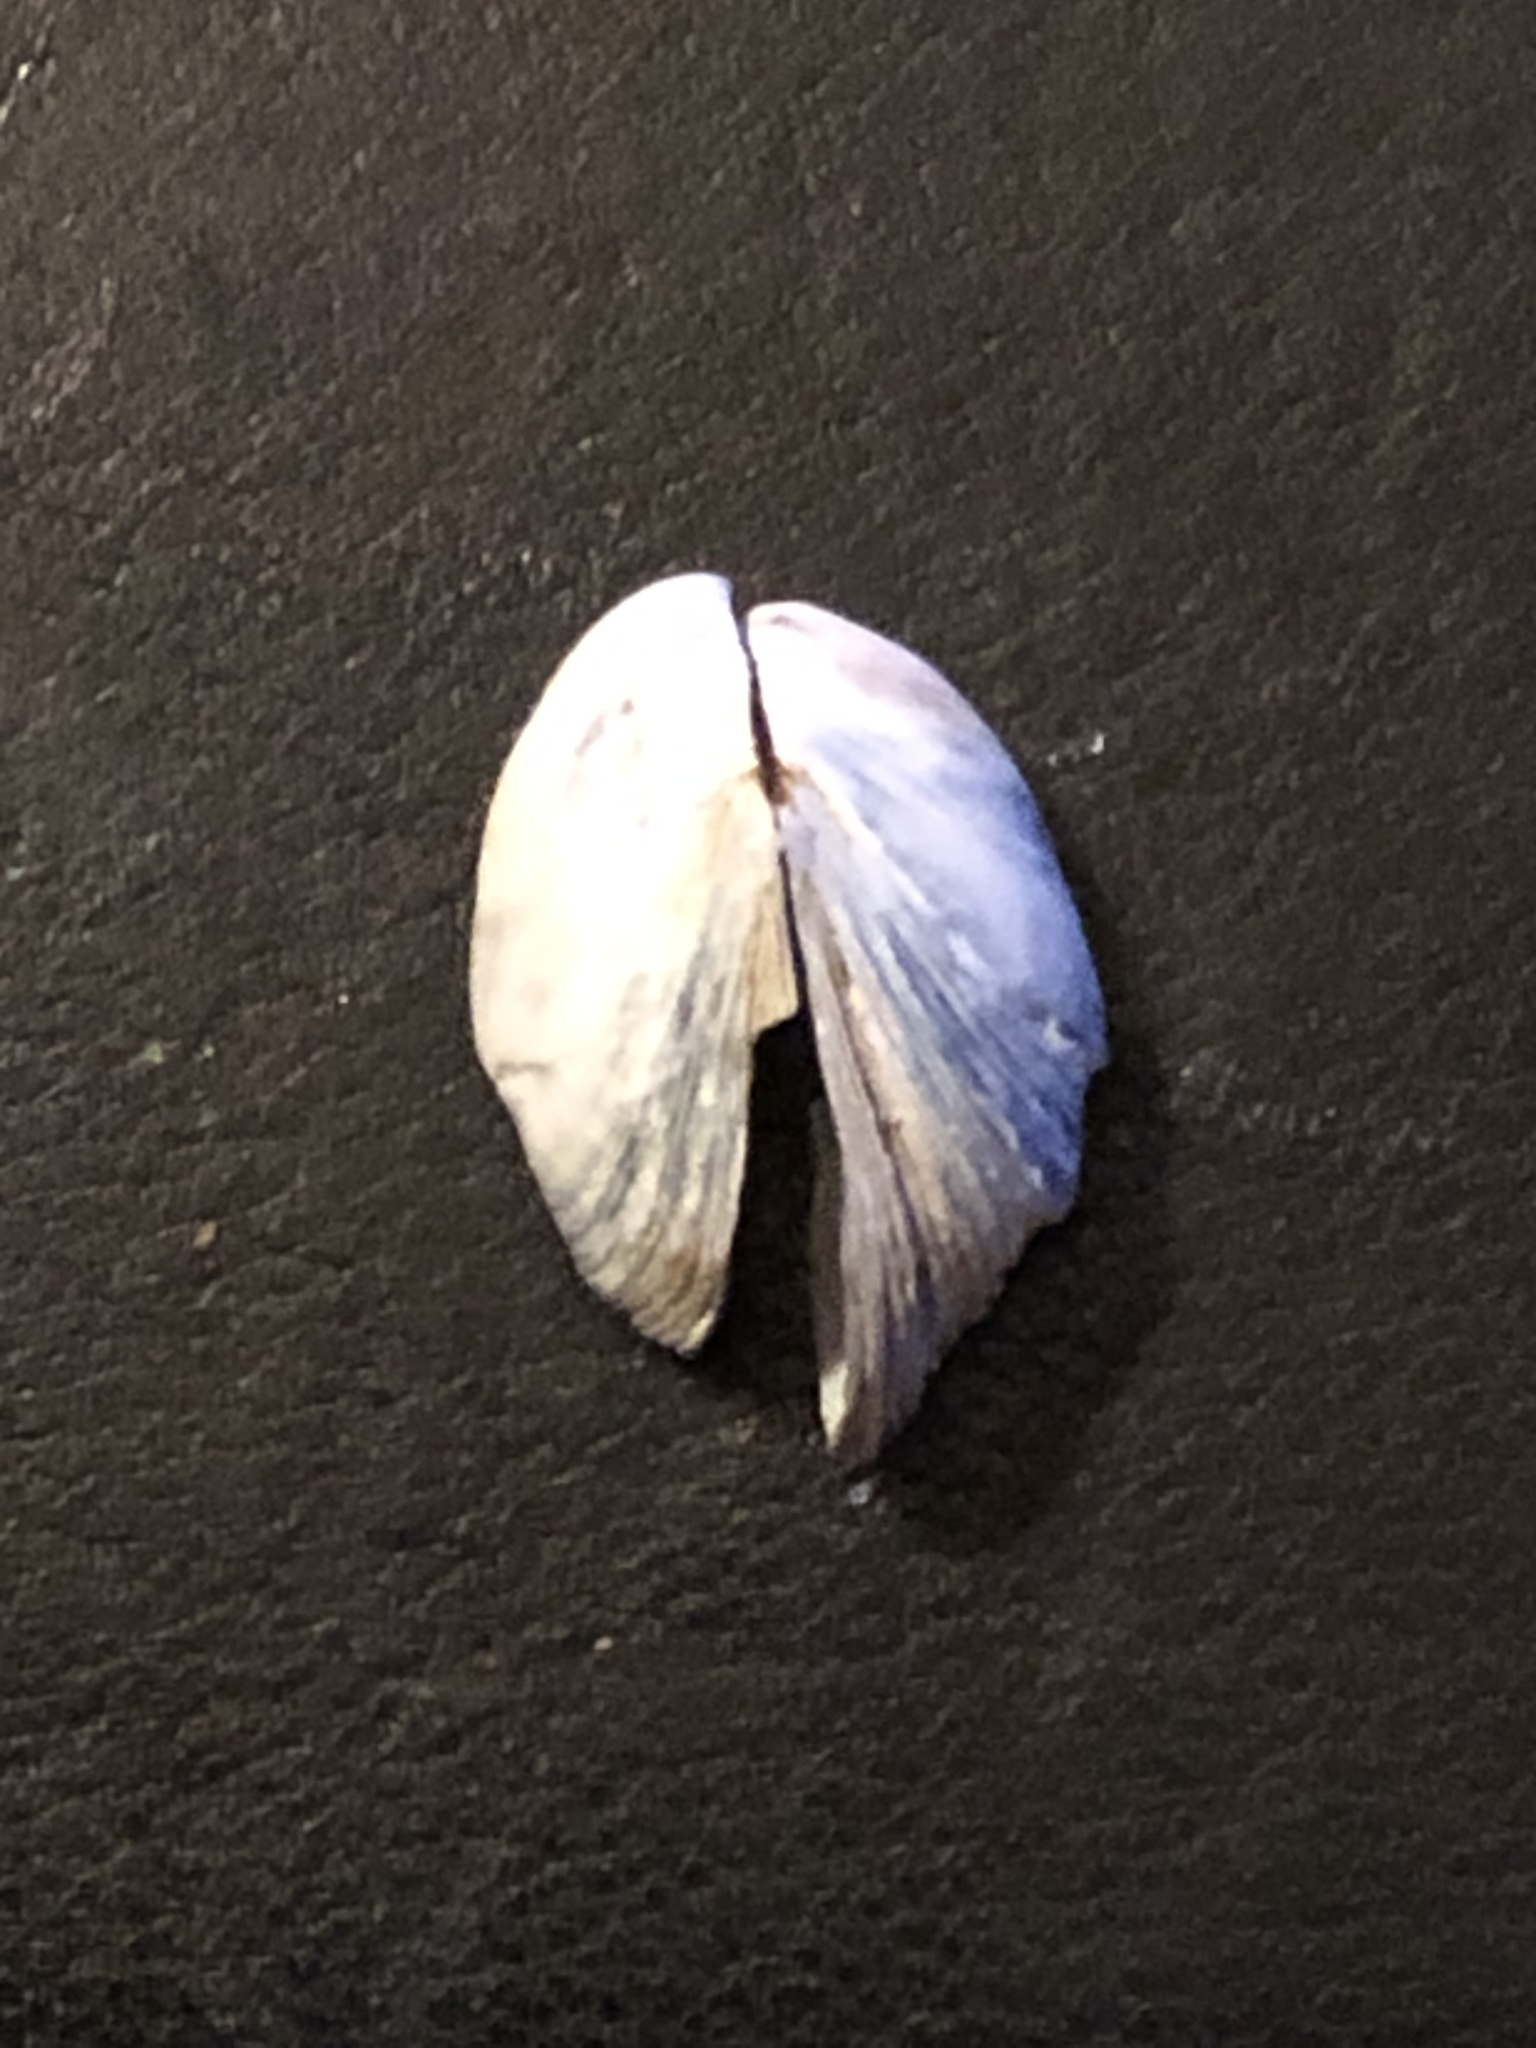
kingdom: Animalia
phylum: Mollusca
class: Bivalvia
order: Myida
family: Dreissenidae
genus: Dreissena
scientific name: Dreissena polymorpha
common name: Zebra mussel
